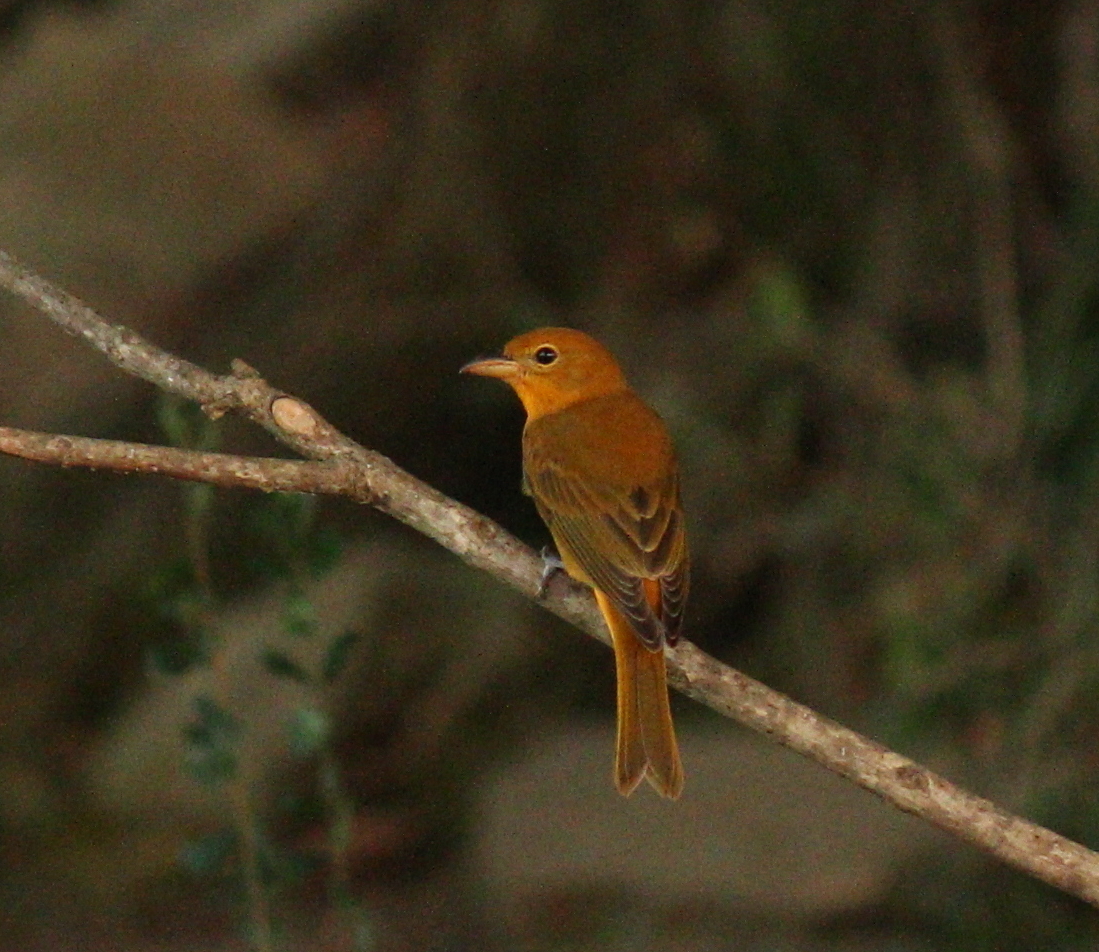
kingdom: Animalia
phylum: Chordata
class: Aves
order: Passeriformes
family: Cardinalidae
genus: Piranga
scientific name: Piranga rubra
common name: Summer tanager
